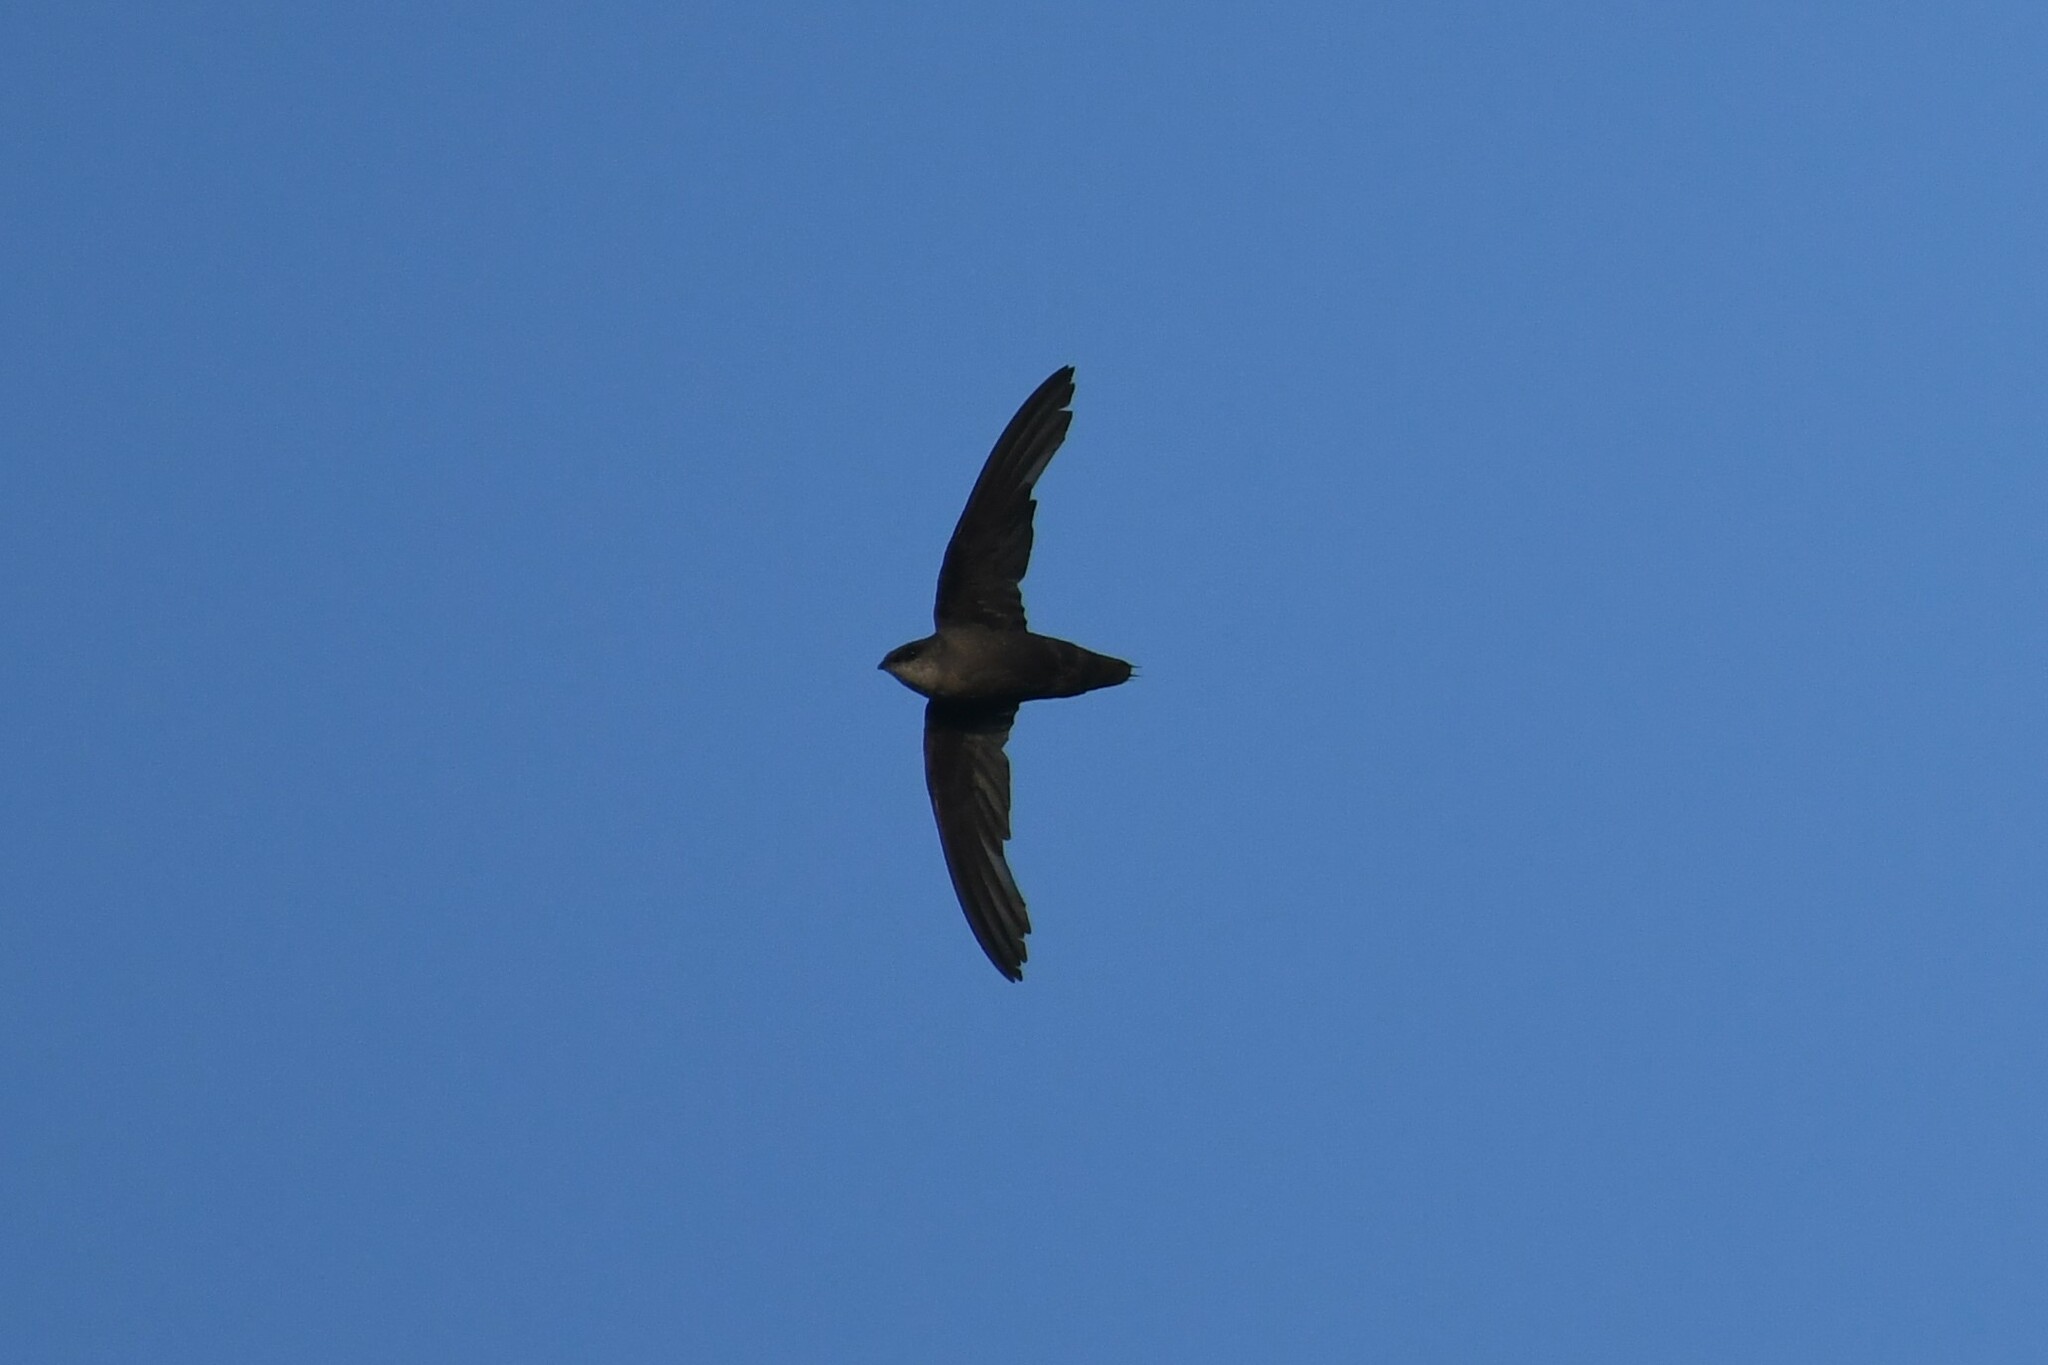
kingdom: Animalia
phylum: Chordata
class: Aves
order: Apodiformes
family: Apodidae
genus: Chaetura
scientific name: Chaetura pelagica
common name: Chimney swift
